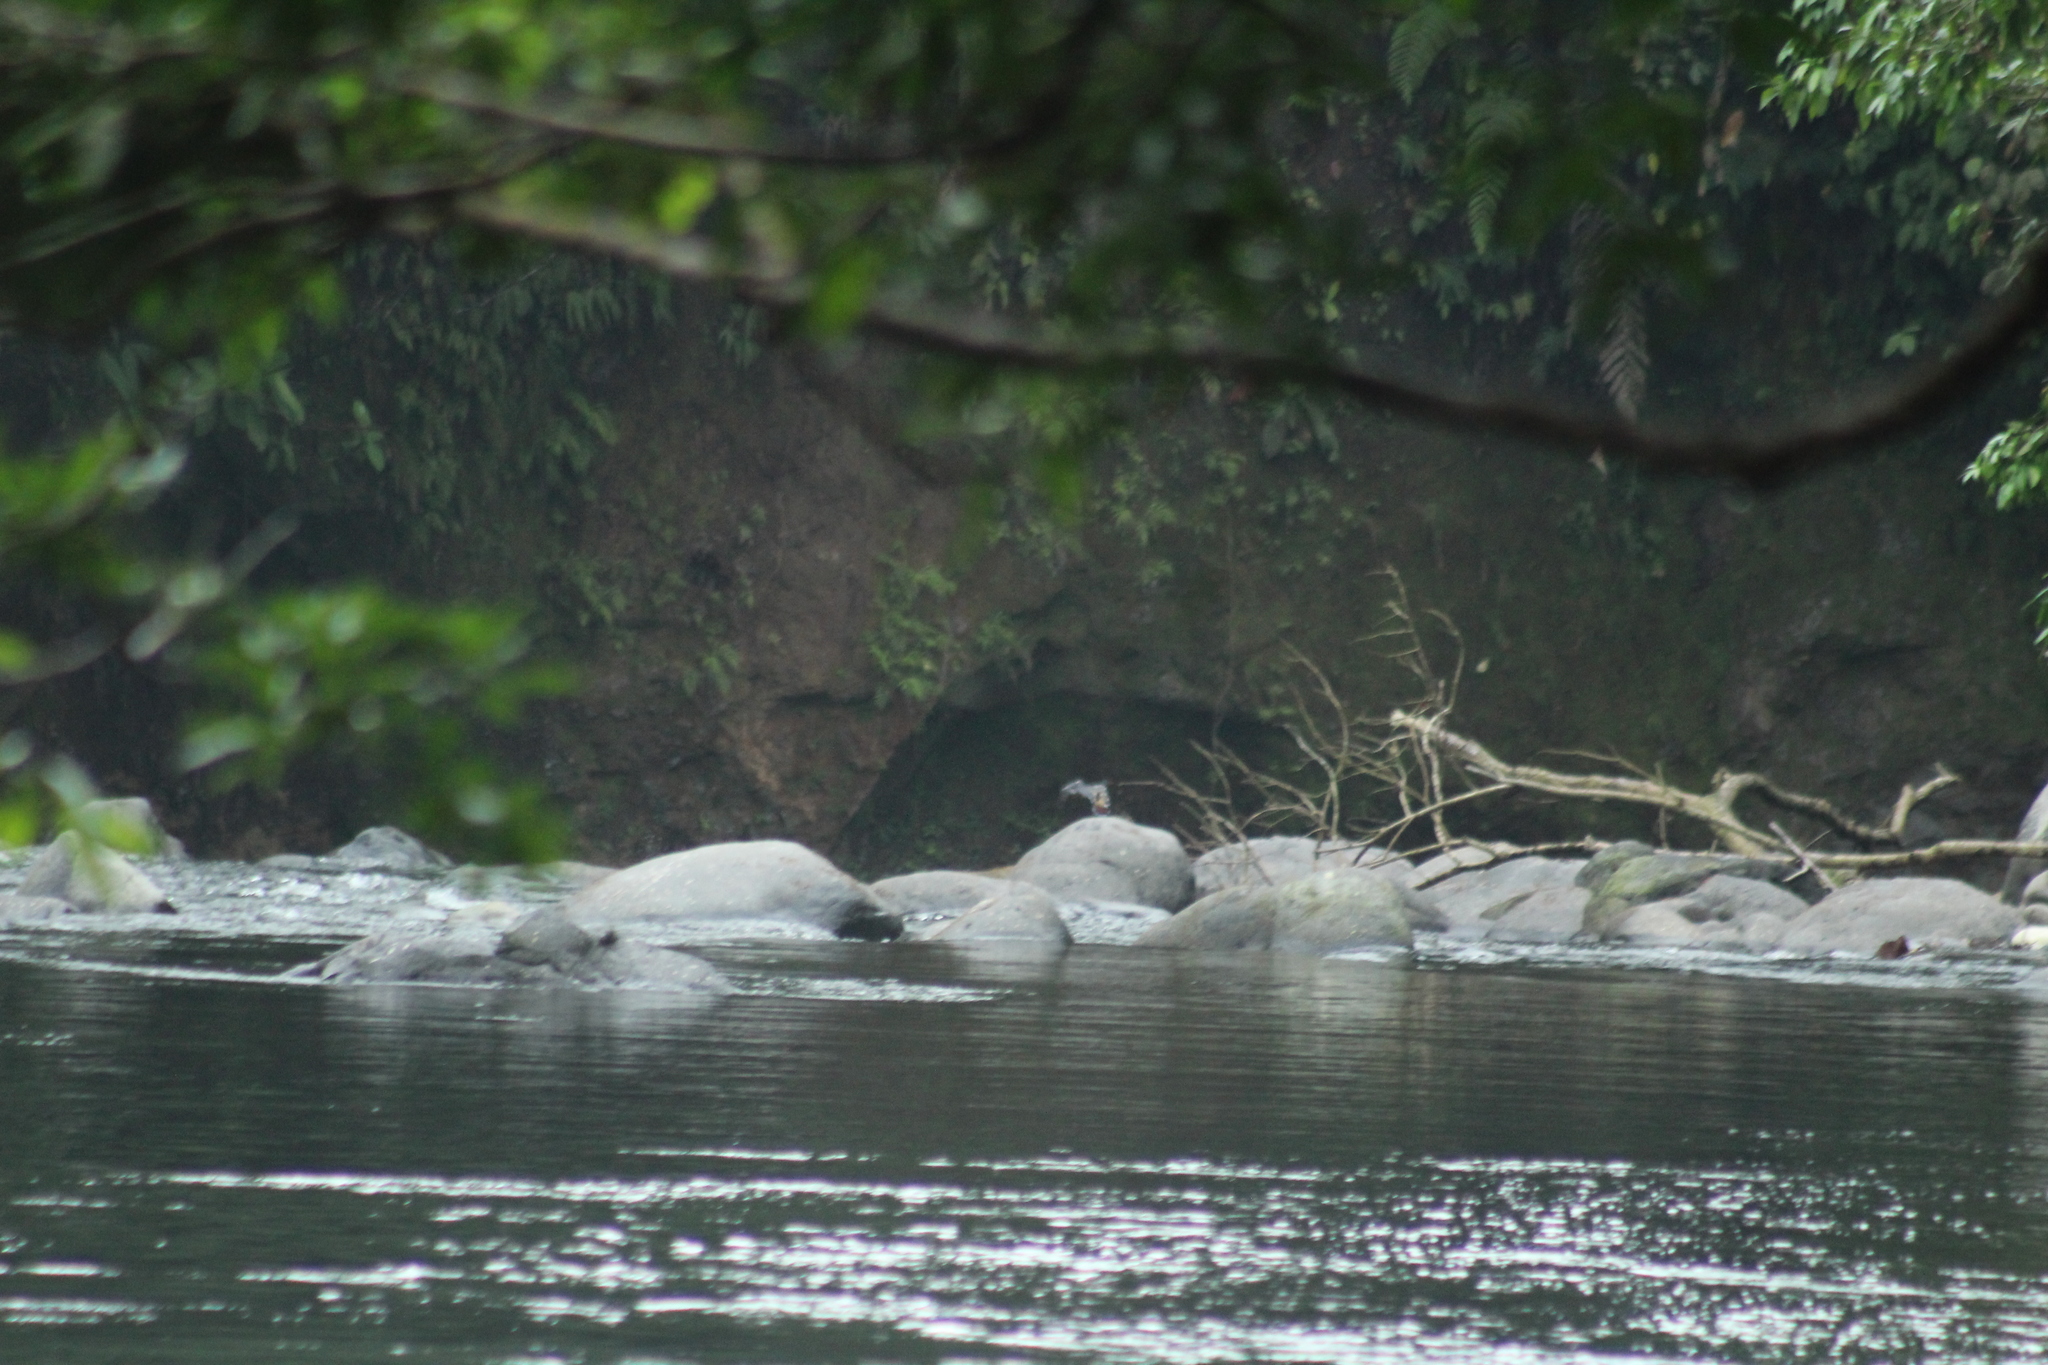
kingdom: Animalia
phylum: Chordata
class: Aves
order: Eurypygiformes
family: Eurypygidae
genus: Eurypyga
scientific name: Eurypyga helias
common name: Sunbittern
